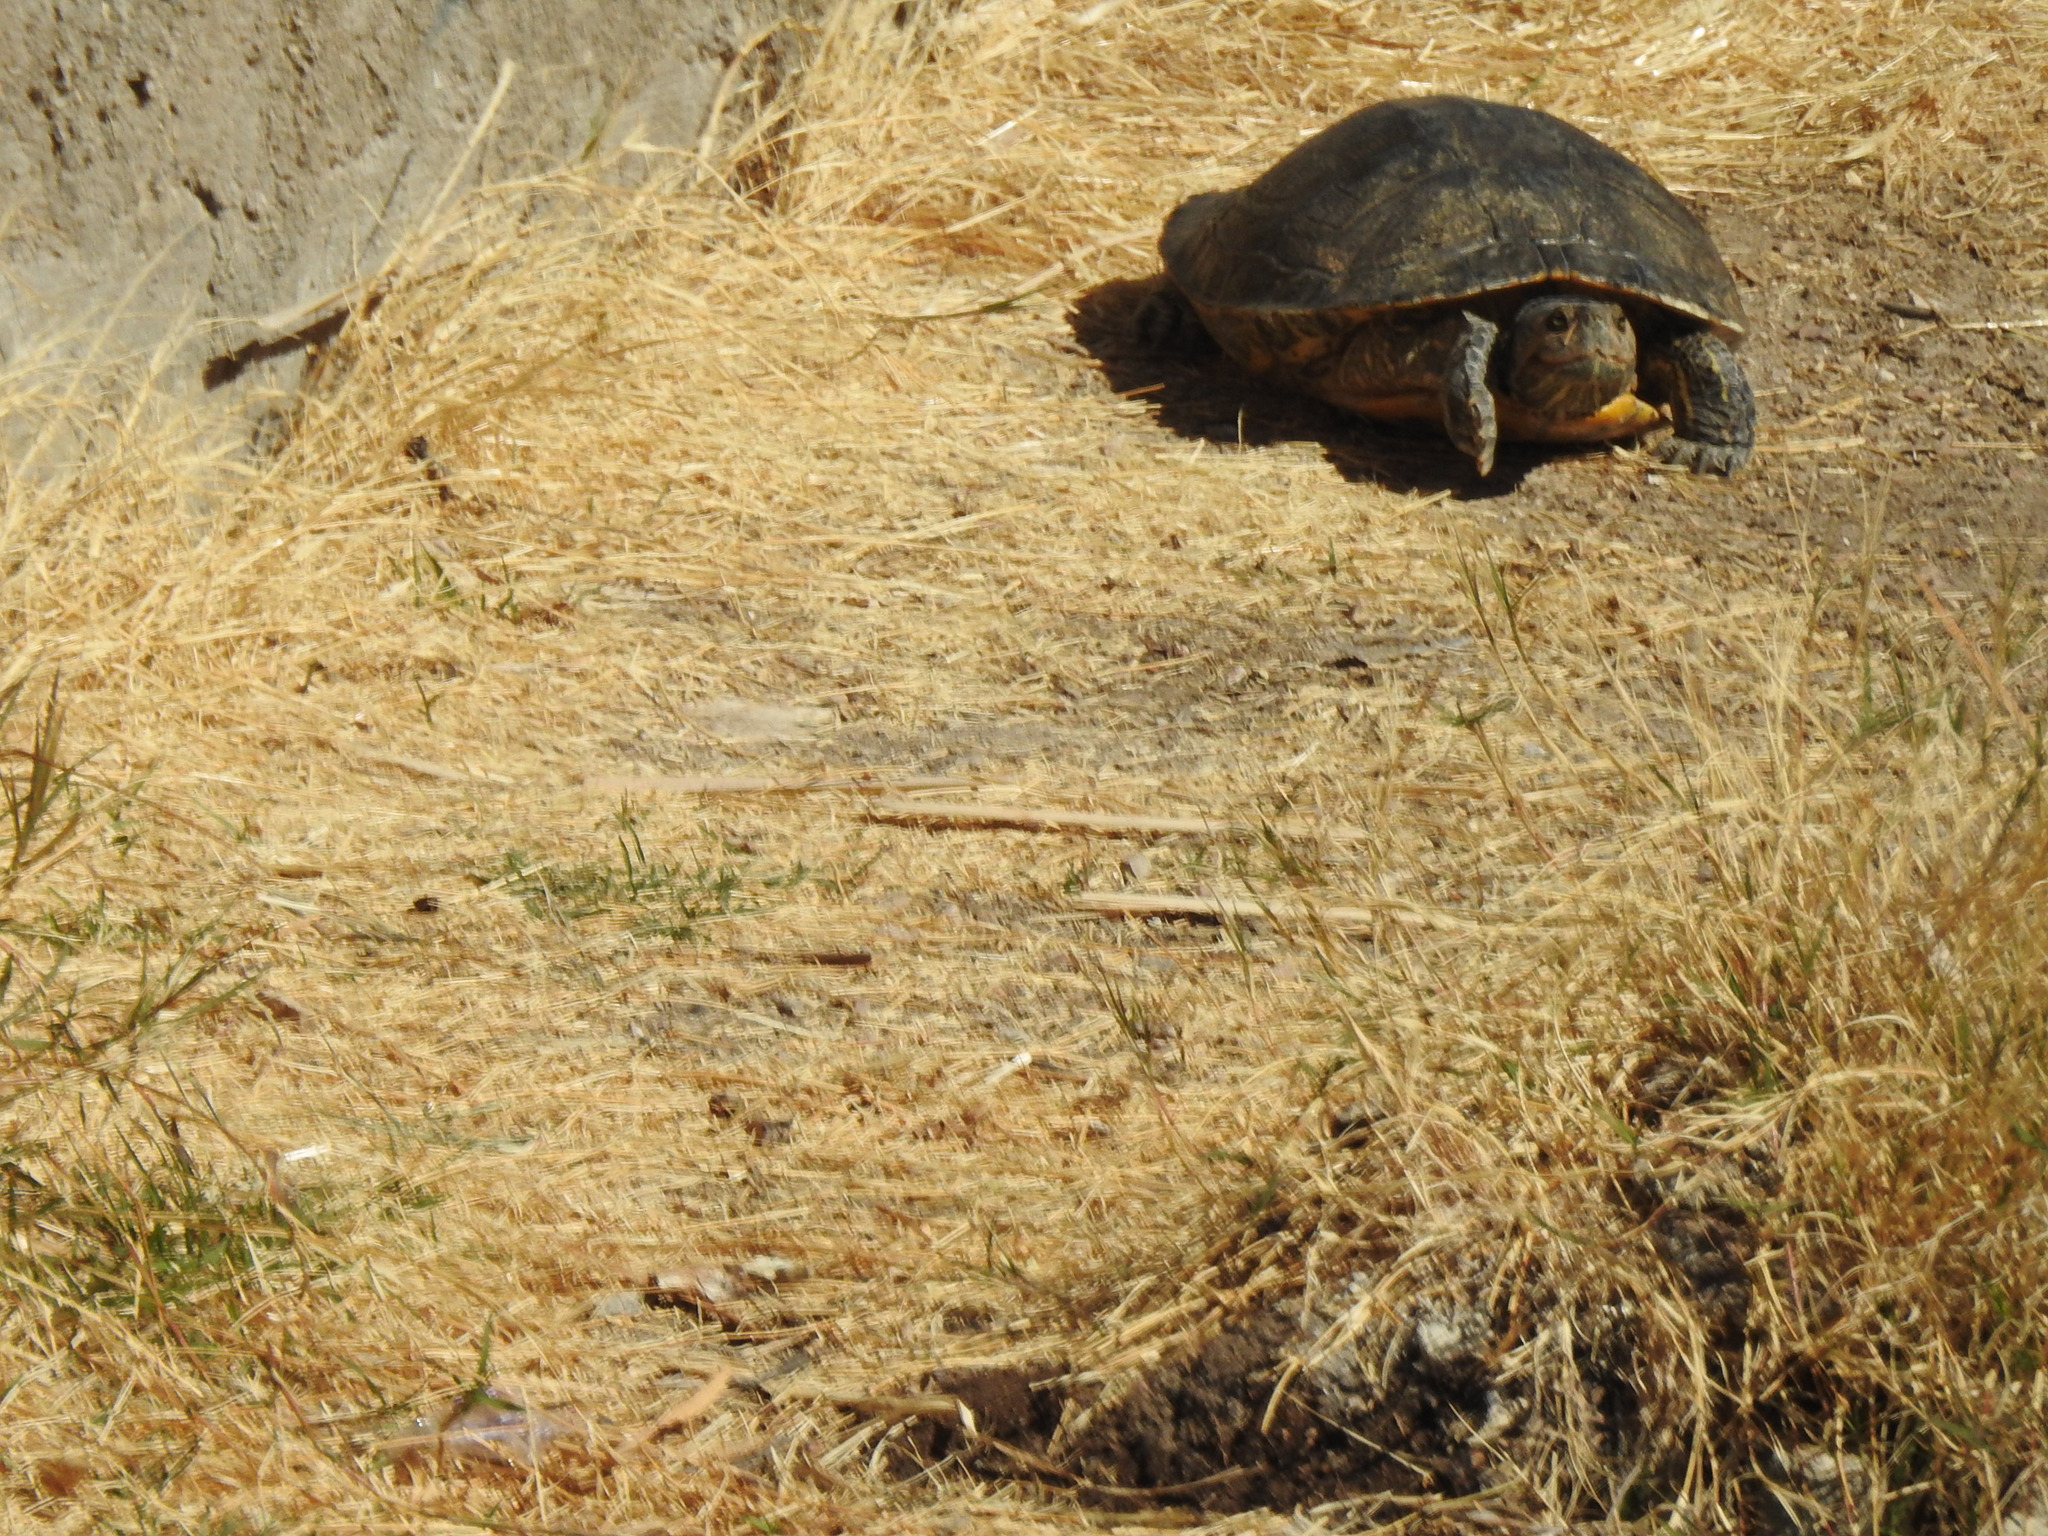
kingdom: Animalia
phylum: Chordata
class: Testudines
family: Emydidae
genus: Trachemys
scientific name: Trachemys scripta
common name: Slider
